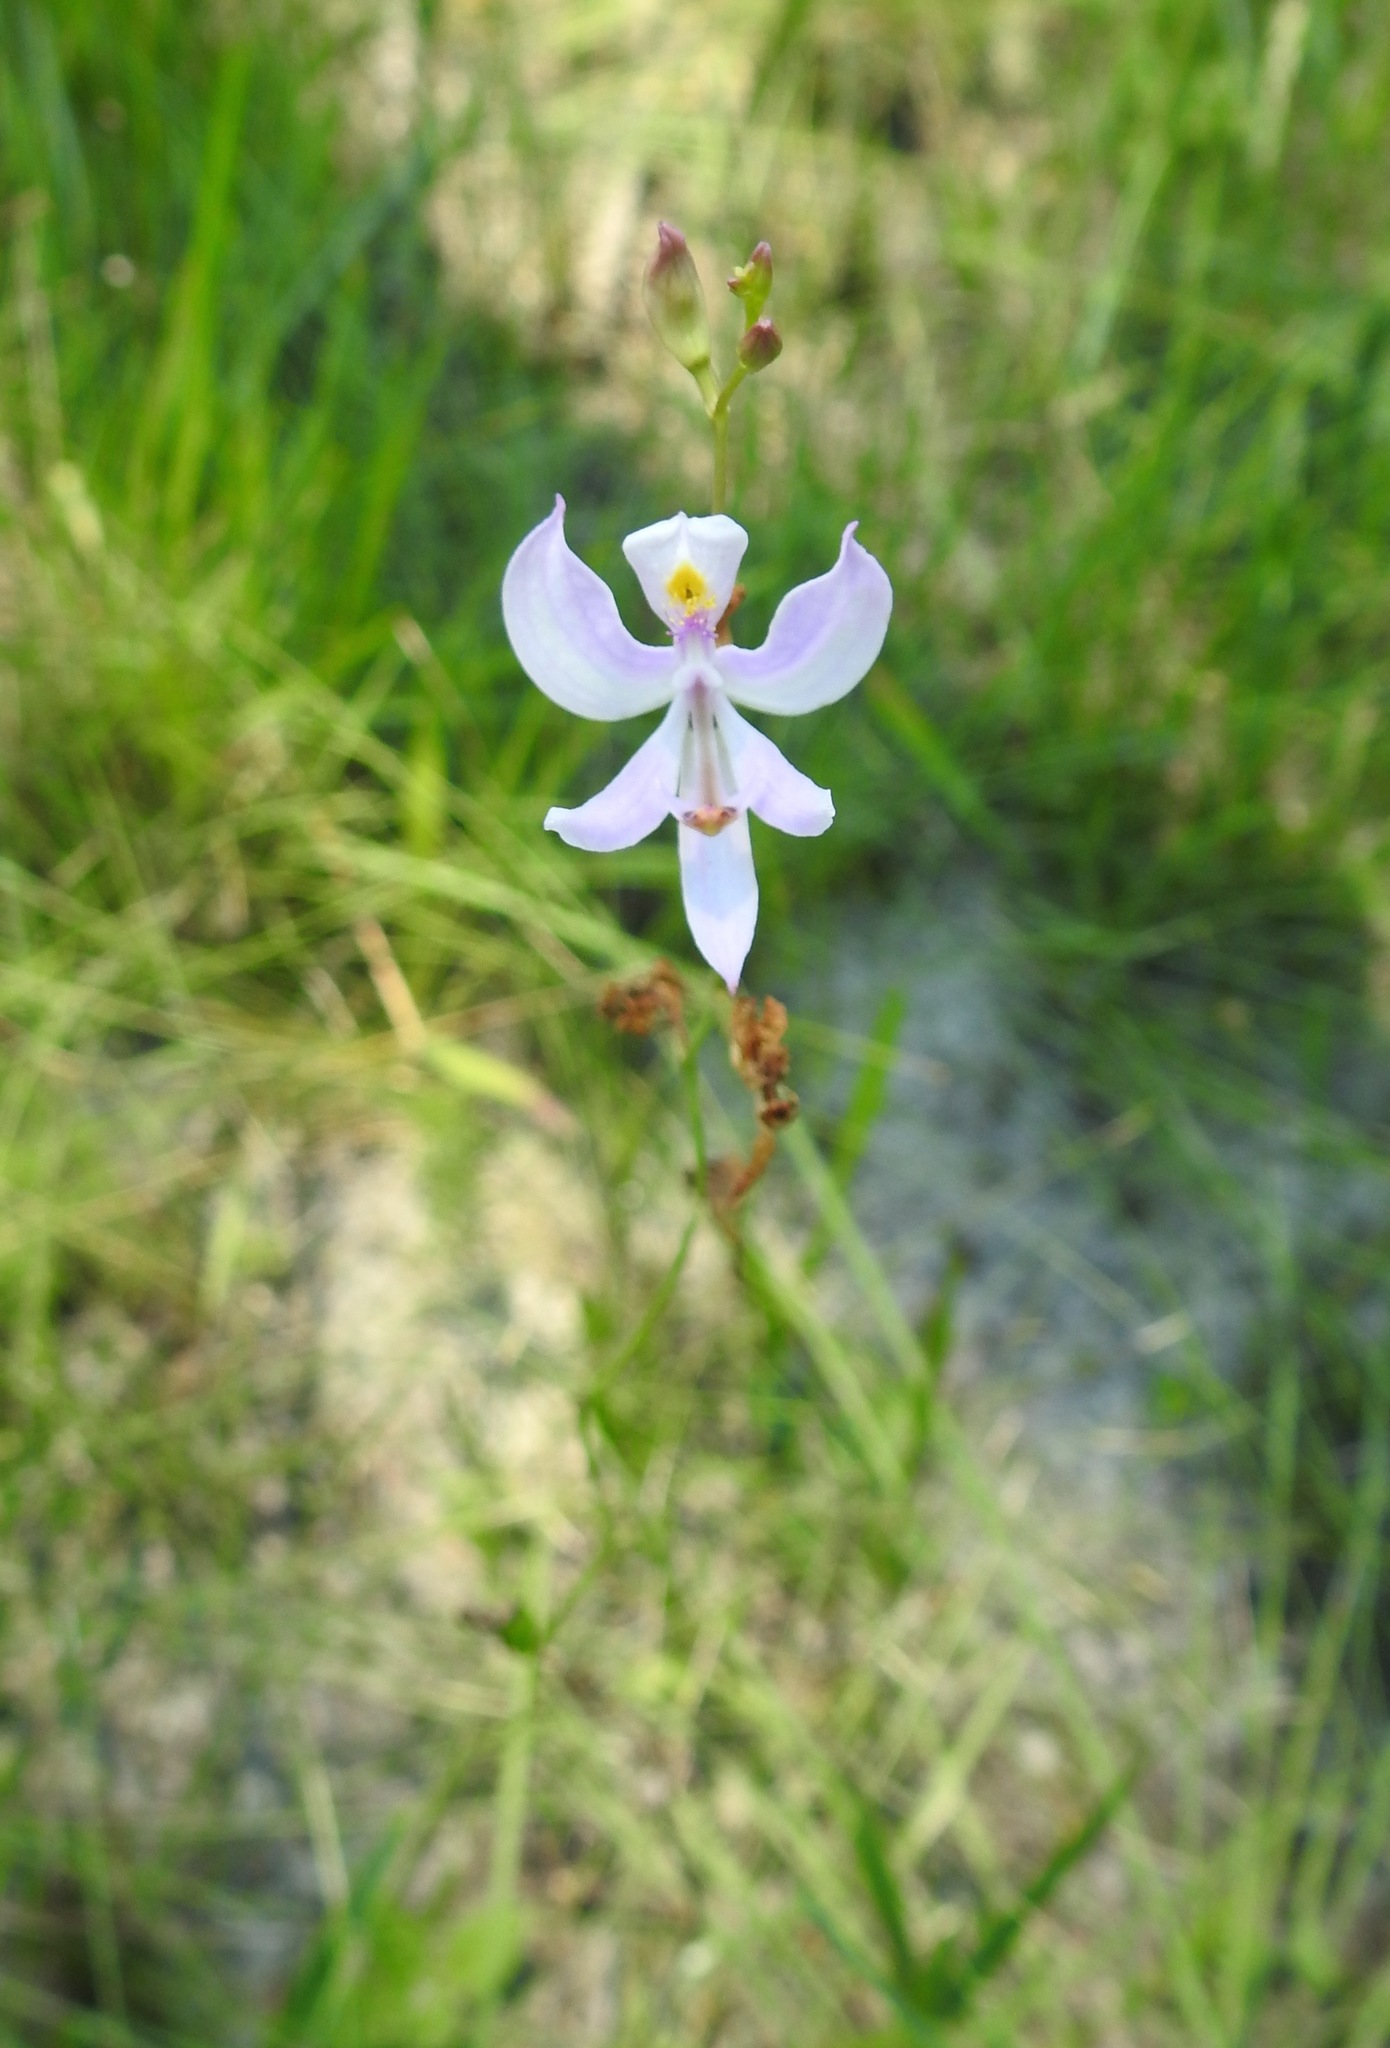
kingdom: Plantae
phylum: Tracheophyta
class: Liliopsida
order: Asparagales
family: Orchidaceae
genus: Calopogon
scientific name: Calopogon pallidus
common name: Pale grasspink
